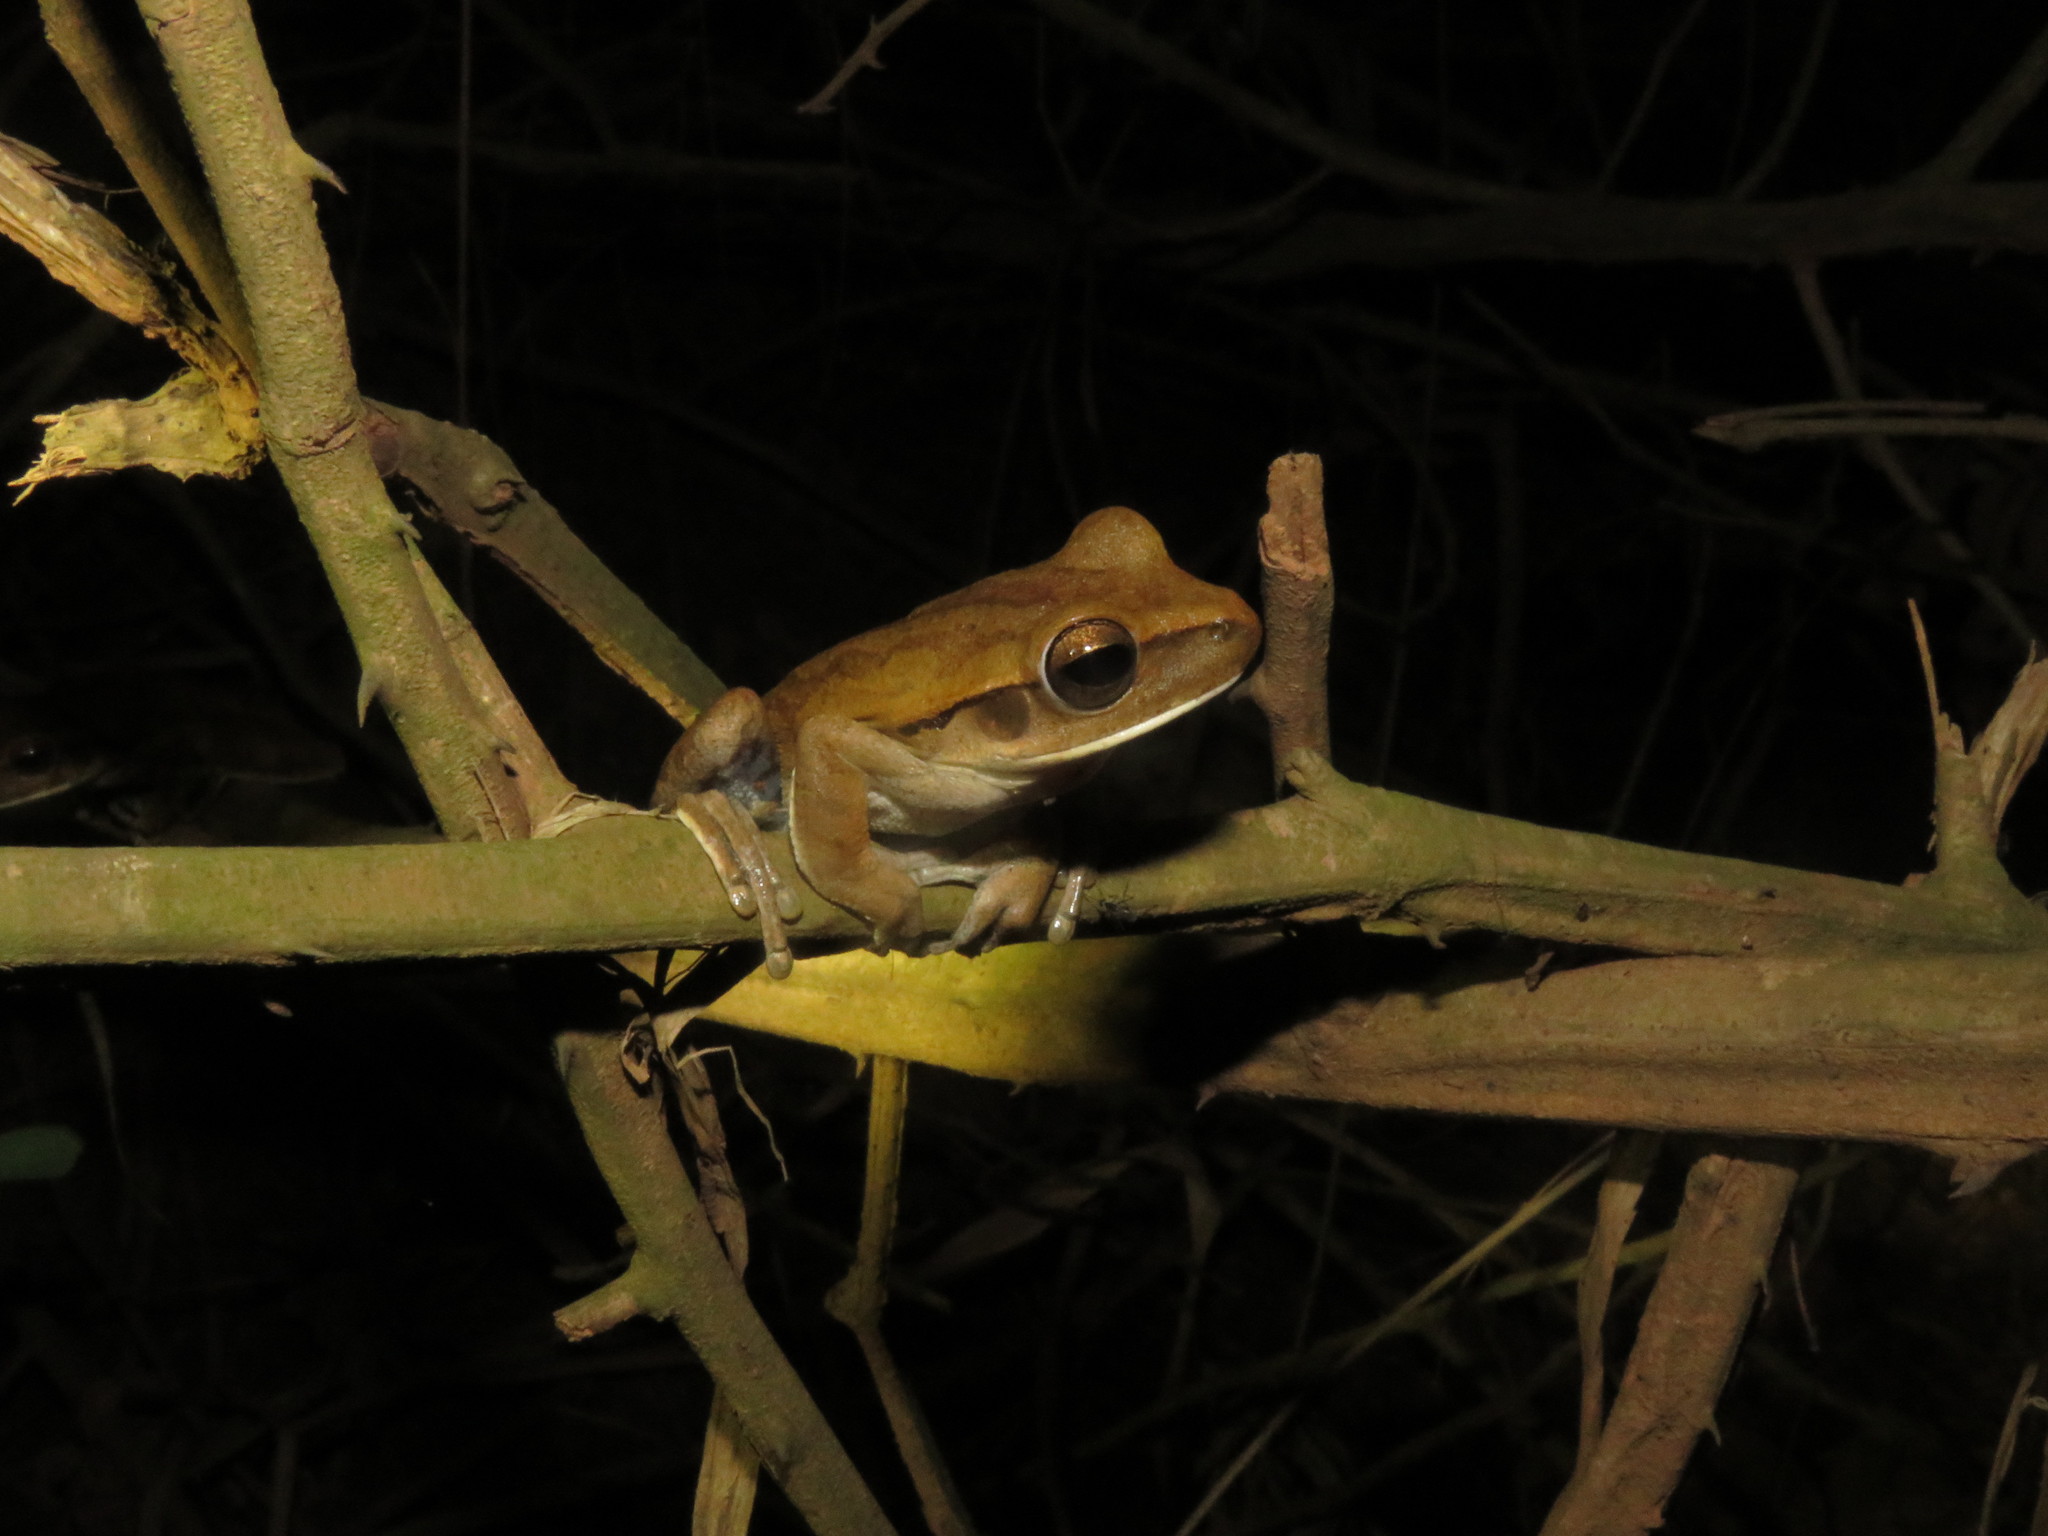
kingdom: Animalia
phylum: Chordata
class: Amphibia
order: Anura
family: Hylidae
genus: Boana
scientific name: Boana raniceps
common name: Chaco treefrog
